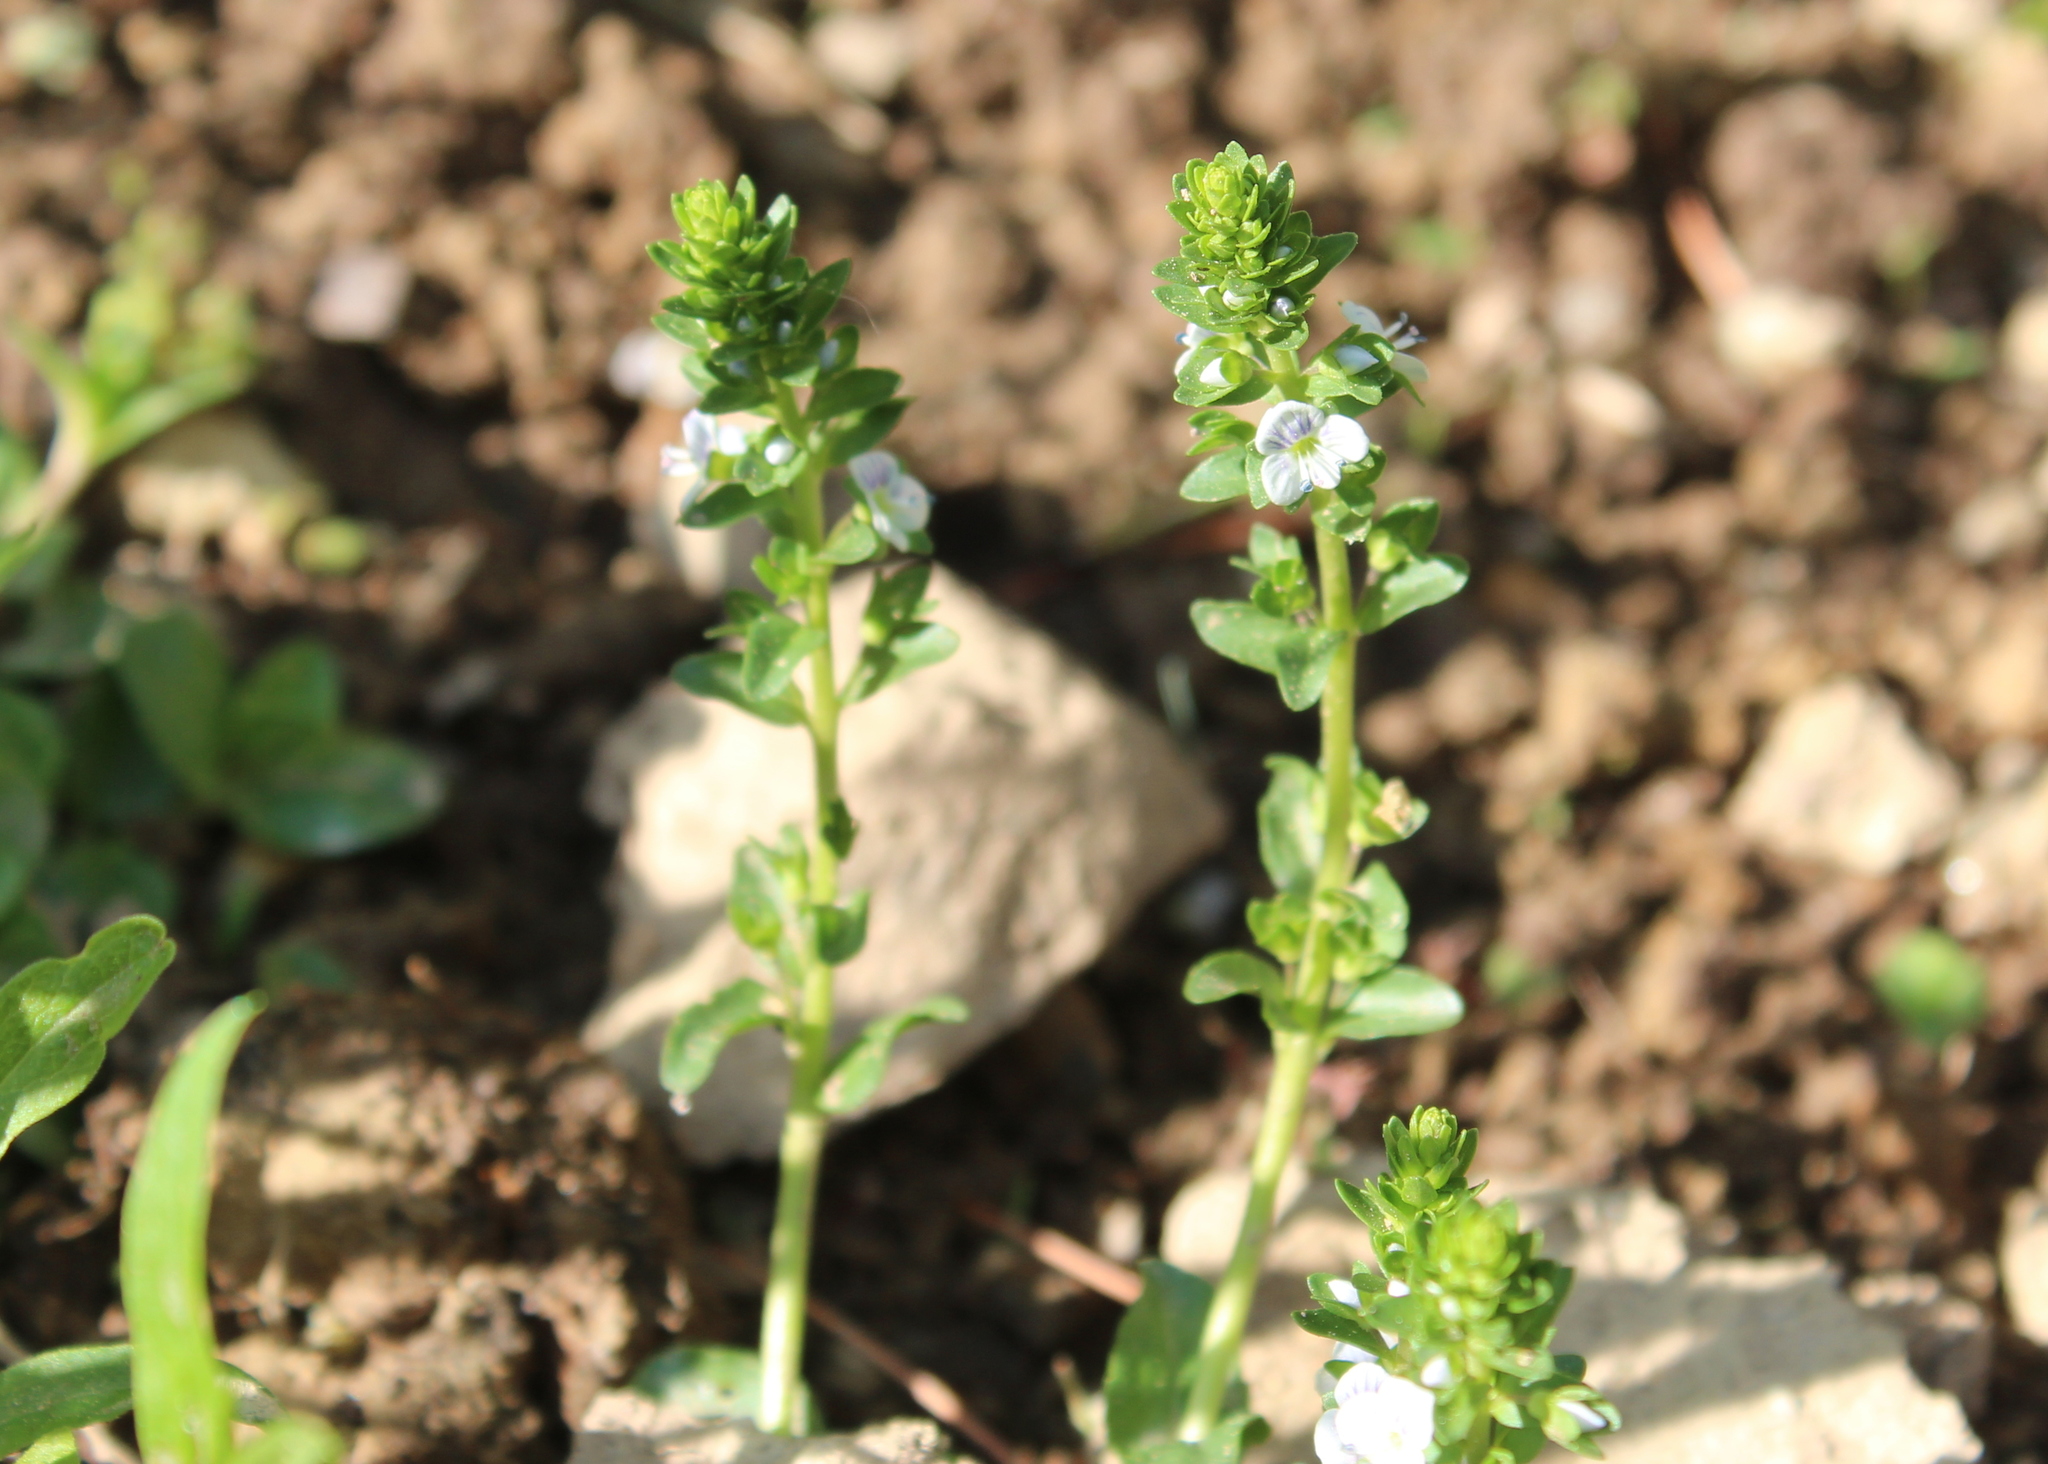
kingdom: Plantae
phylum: Tracheophyta
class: Magnoliopsida
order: Lamiales
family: Plantaginaceae
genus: Veronica
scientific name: Veronica serpyllifolia
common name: Thyme-leaved speedwell
